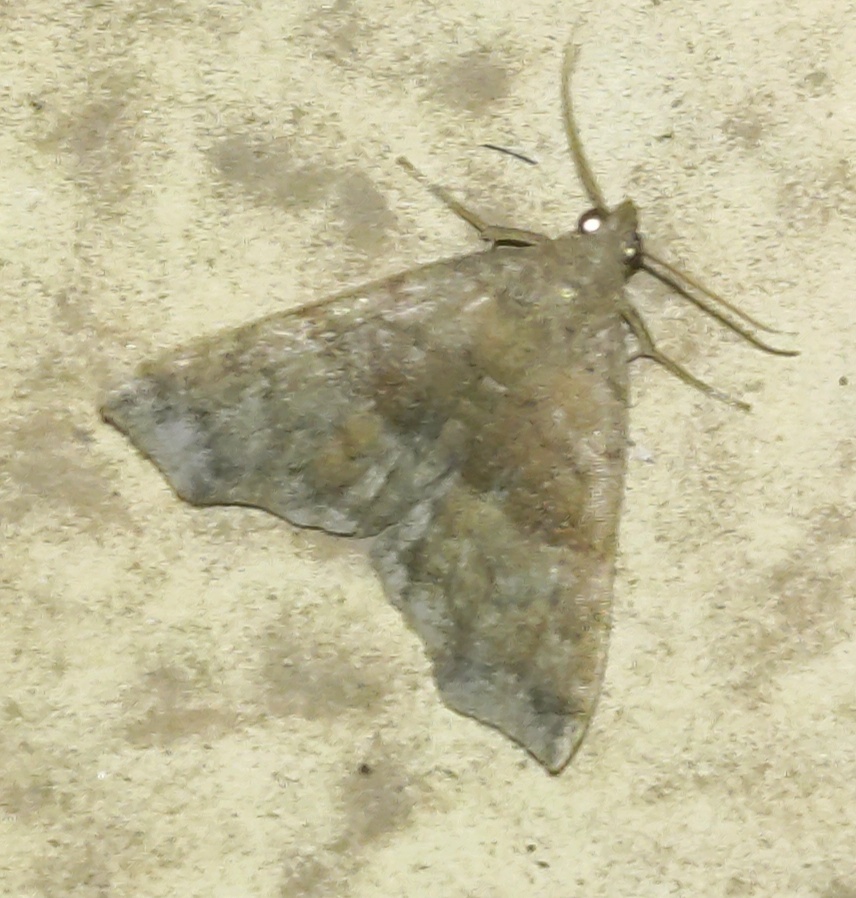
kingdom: Animalia
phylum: Arthropoda
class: Insecta
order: Lepidoptera
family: Erebidae
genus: Polypogon
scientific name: Polypogon Hipoepa fractalis
